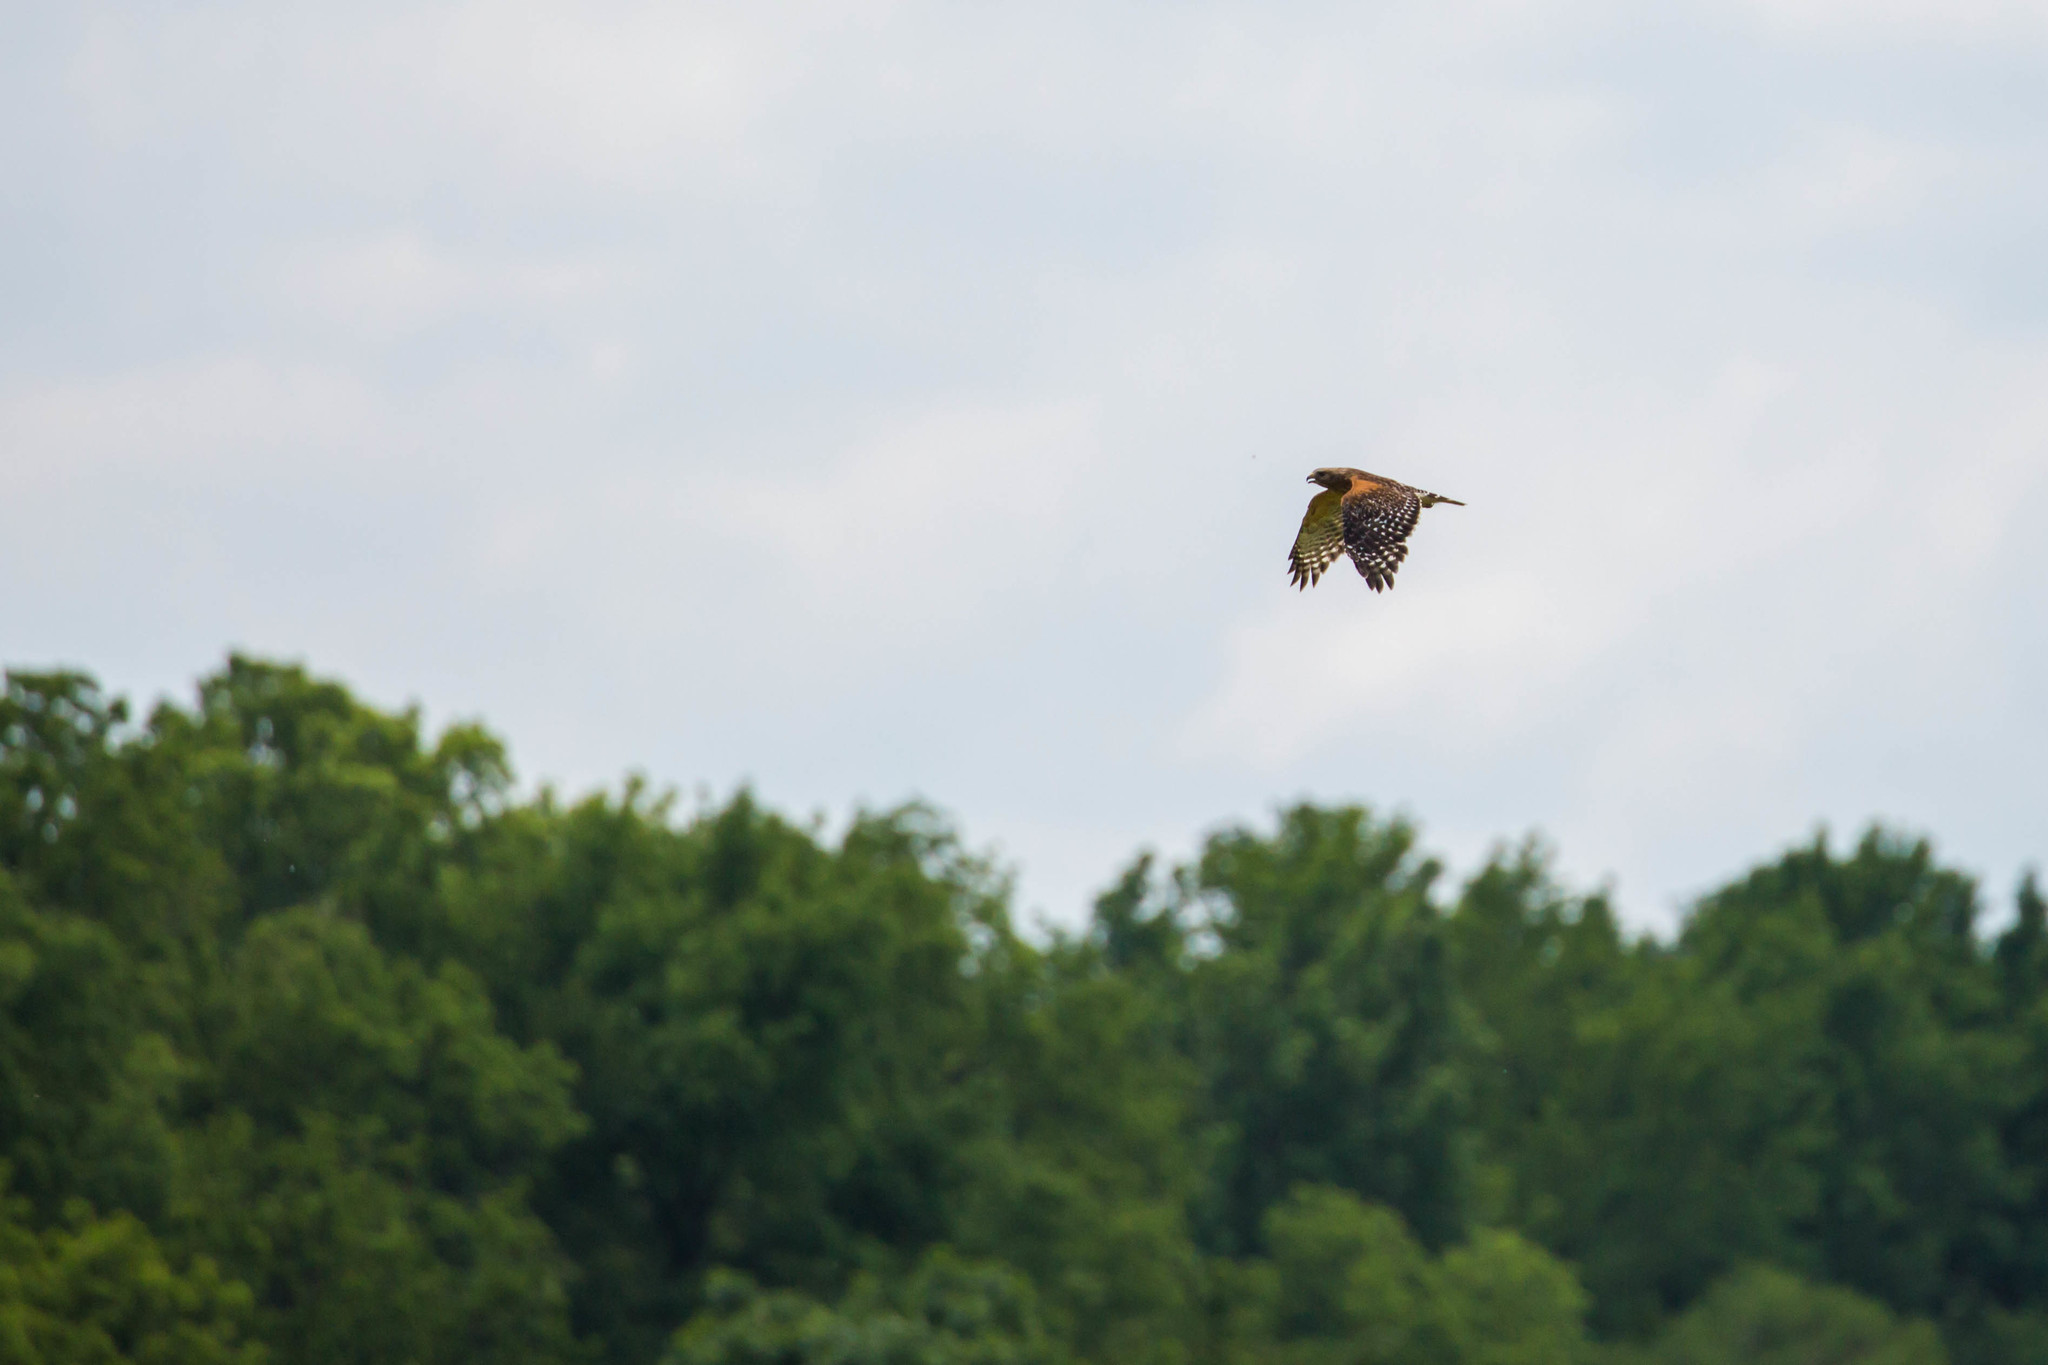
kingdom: Animalia
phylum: Chordata
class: Aves
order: Accipitriformes
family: Accipitridae
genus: Buteo
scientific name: Buteo lineatus
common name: Red-shouldered hawk
